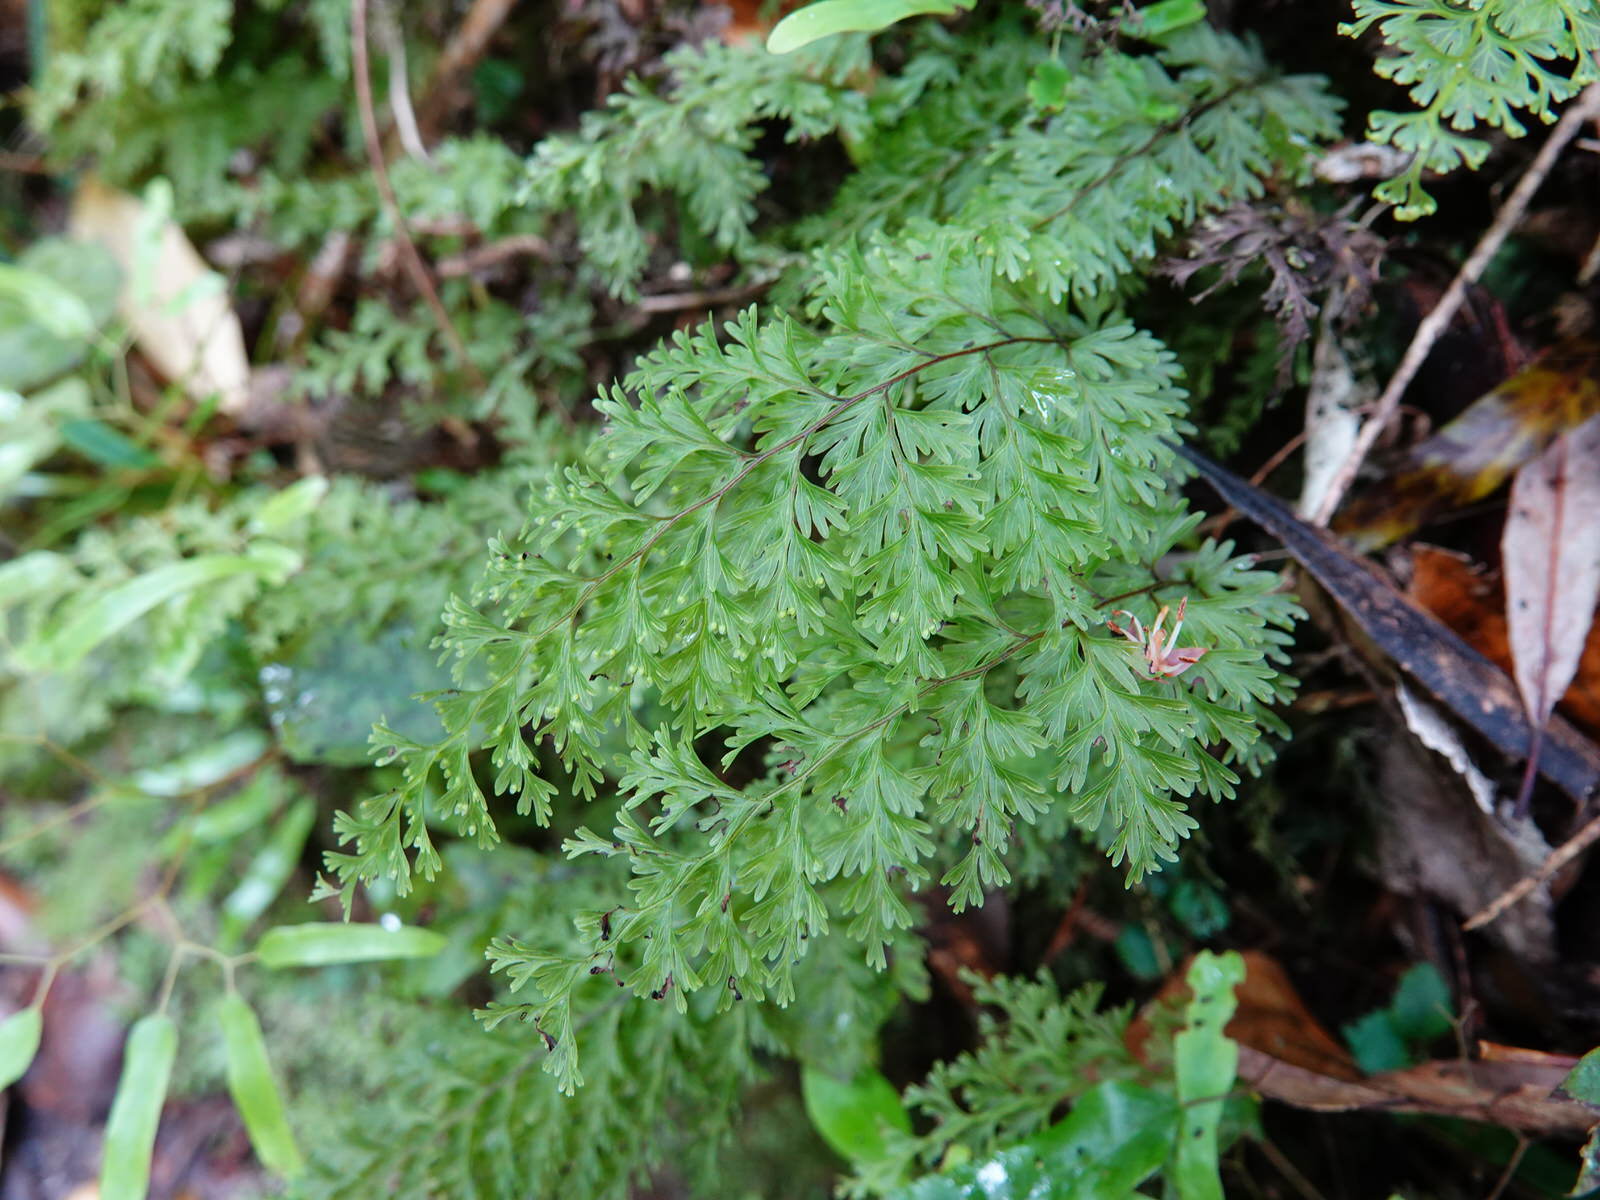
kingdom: Plantae
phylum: Tracheophyta
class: Polypodiopsida
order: Hymenophyllales
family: Hymenophyllaceae
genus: Hymenophyllum
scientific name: Hymenophyllum demissum
